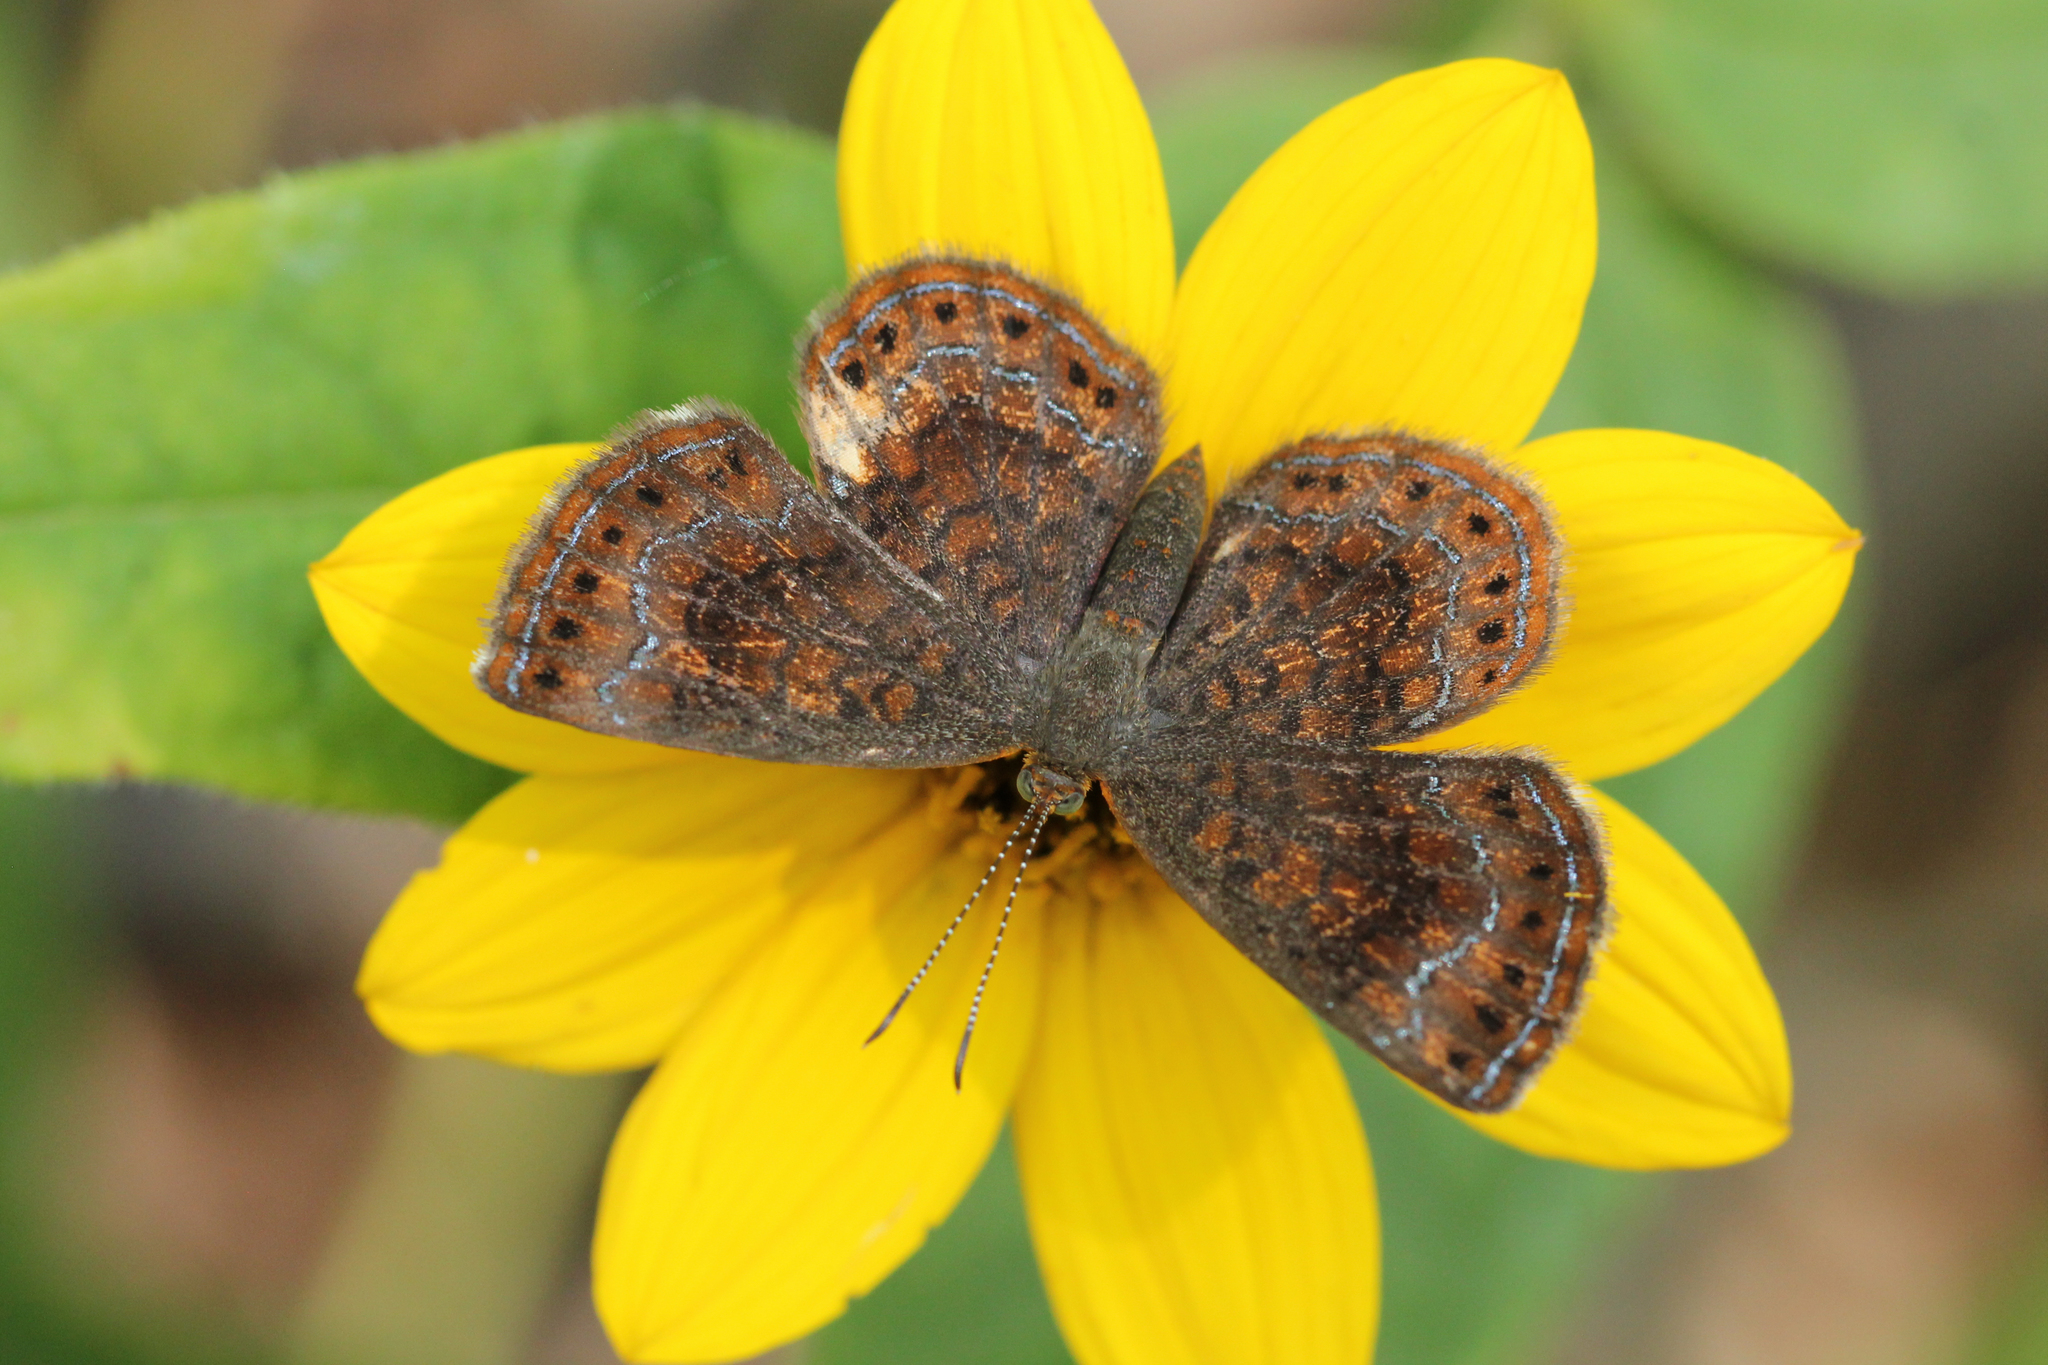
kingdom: Animalia
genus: Calephelis
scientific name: Calephelis borealis
